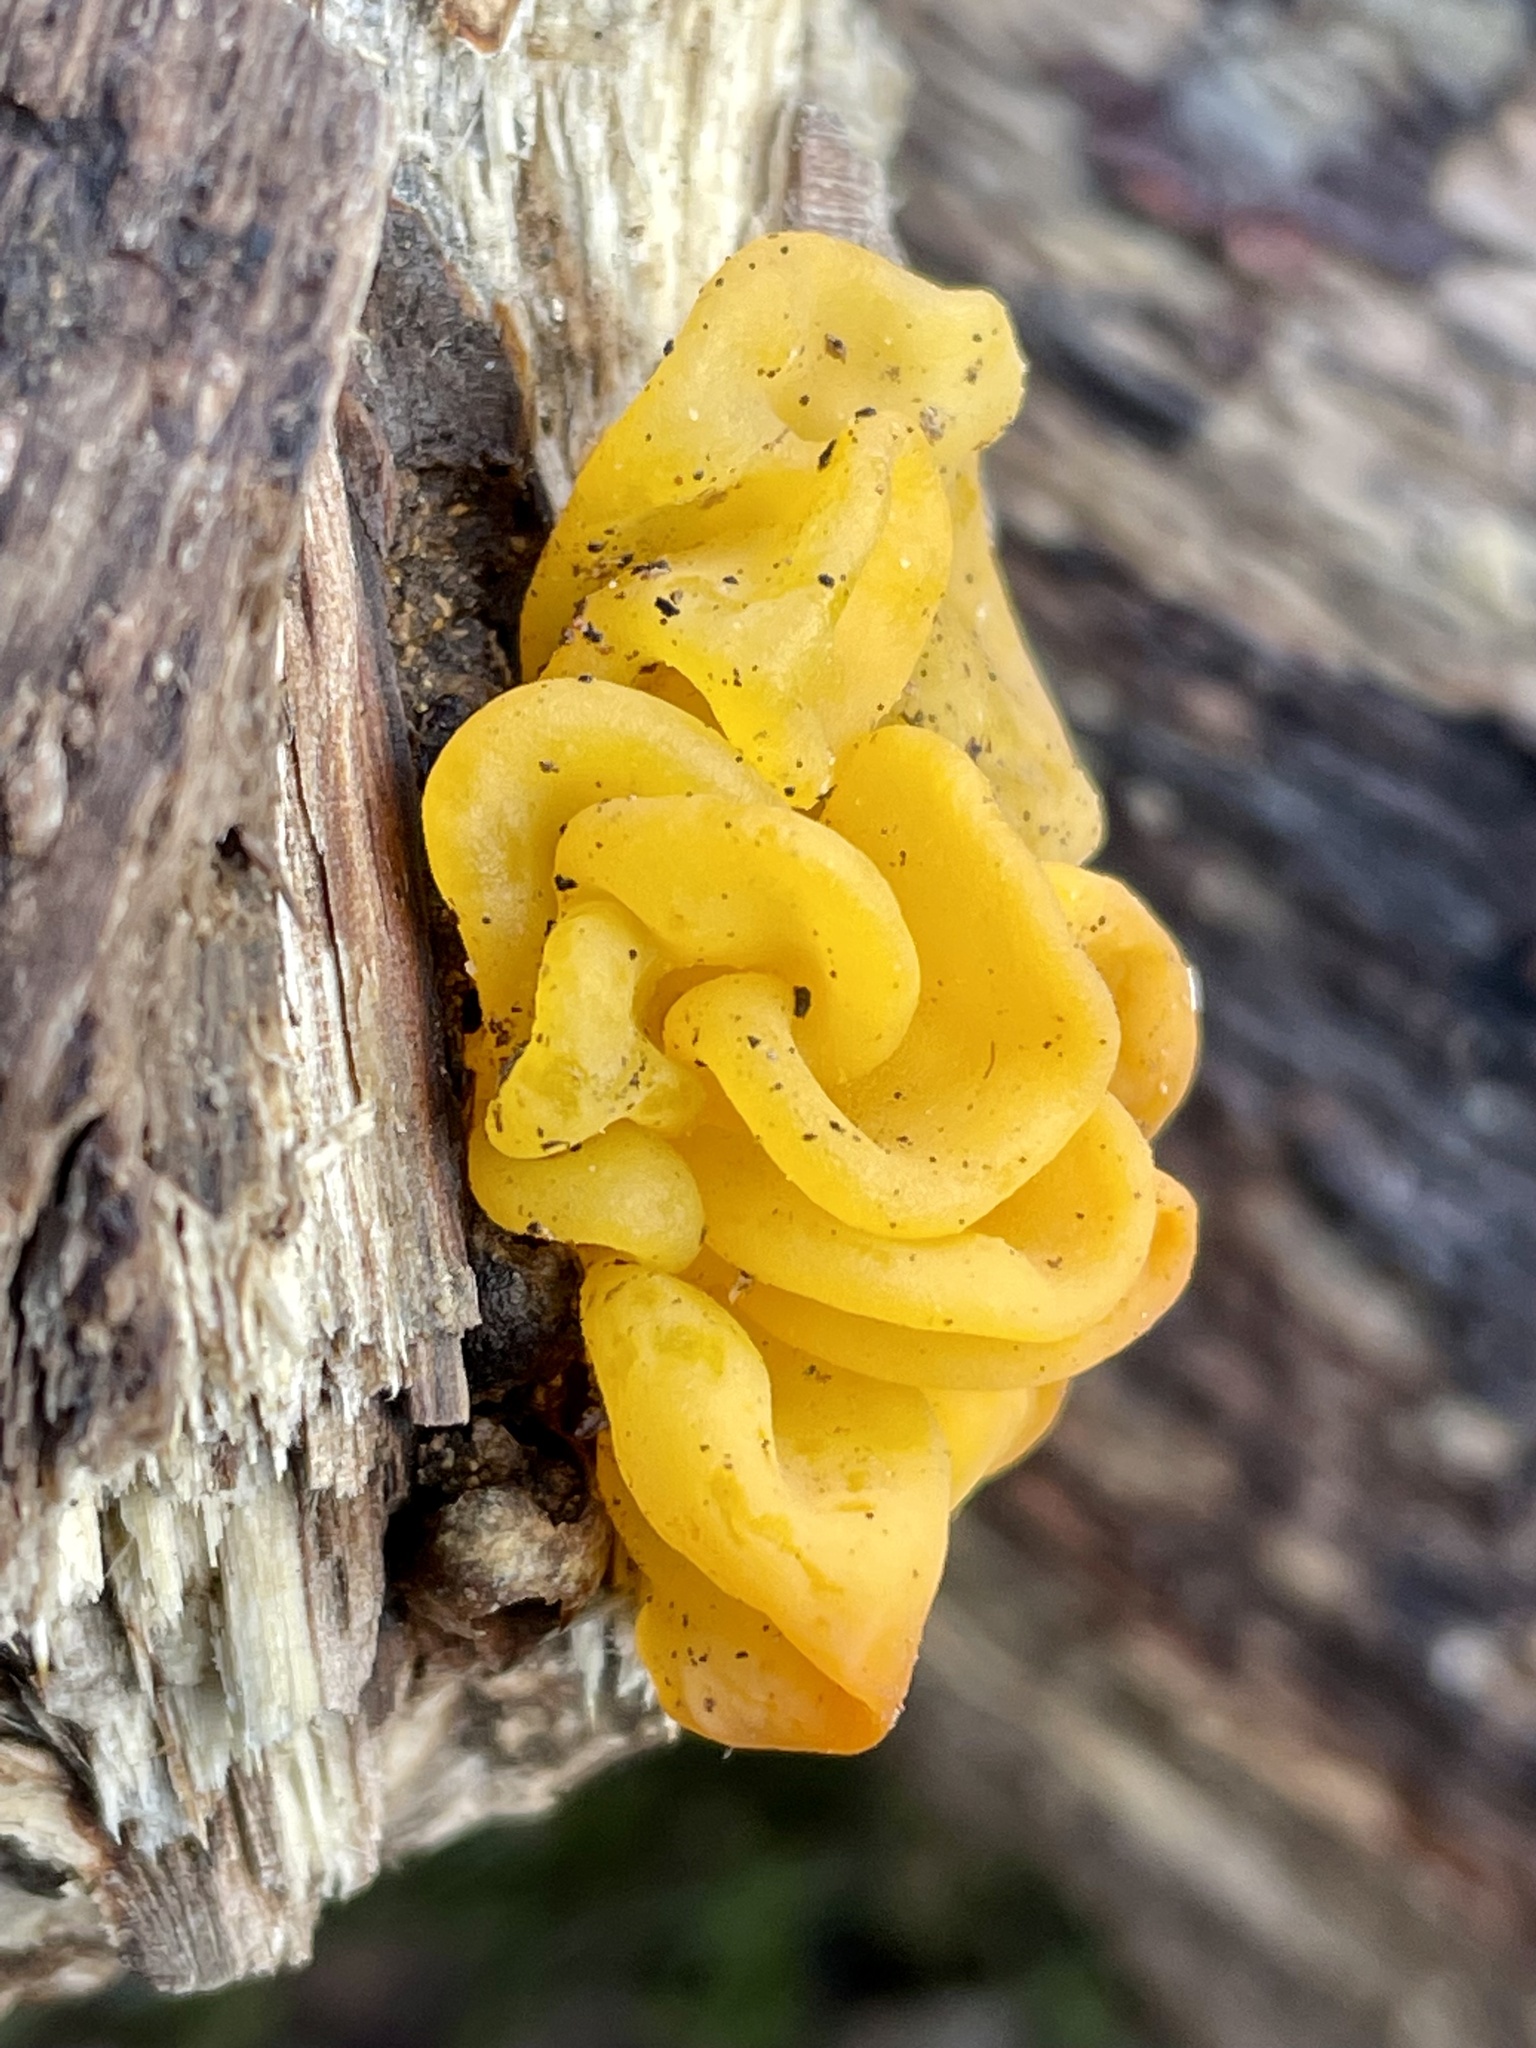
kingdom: Fungi
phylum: Basidiomycota
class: Tremellomycetes
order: Tremellales
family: Naemateliaceae
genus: Naematelia
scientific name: Naematelia aurantia
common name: Golden ear
